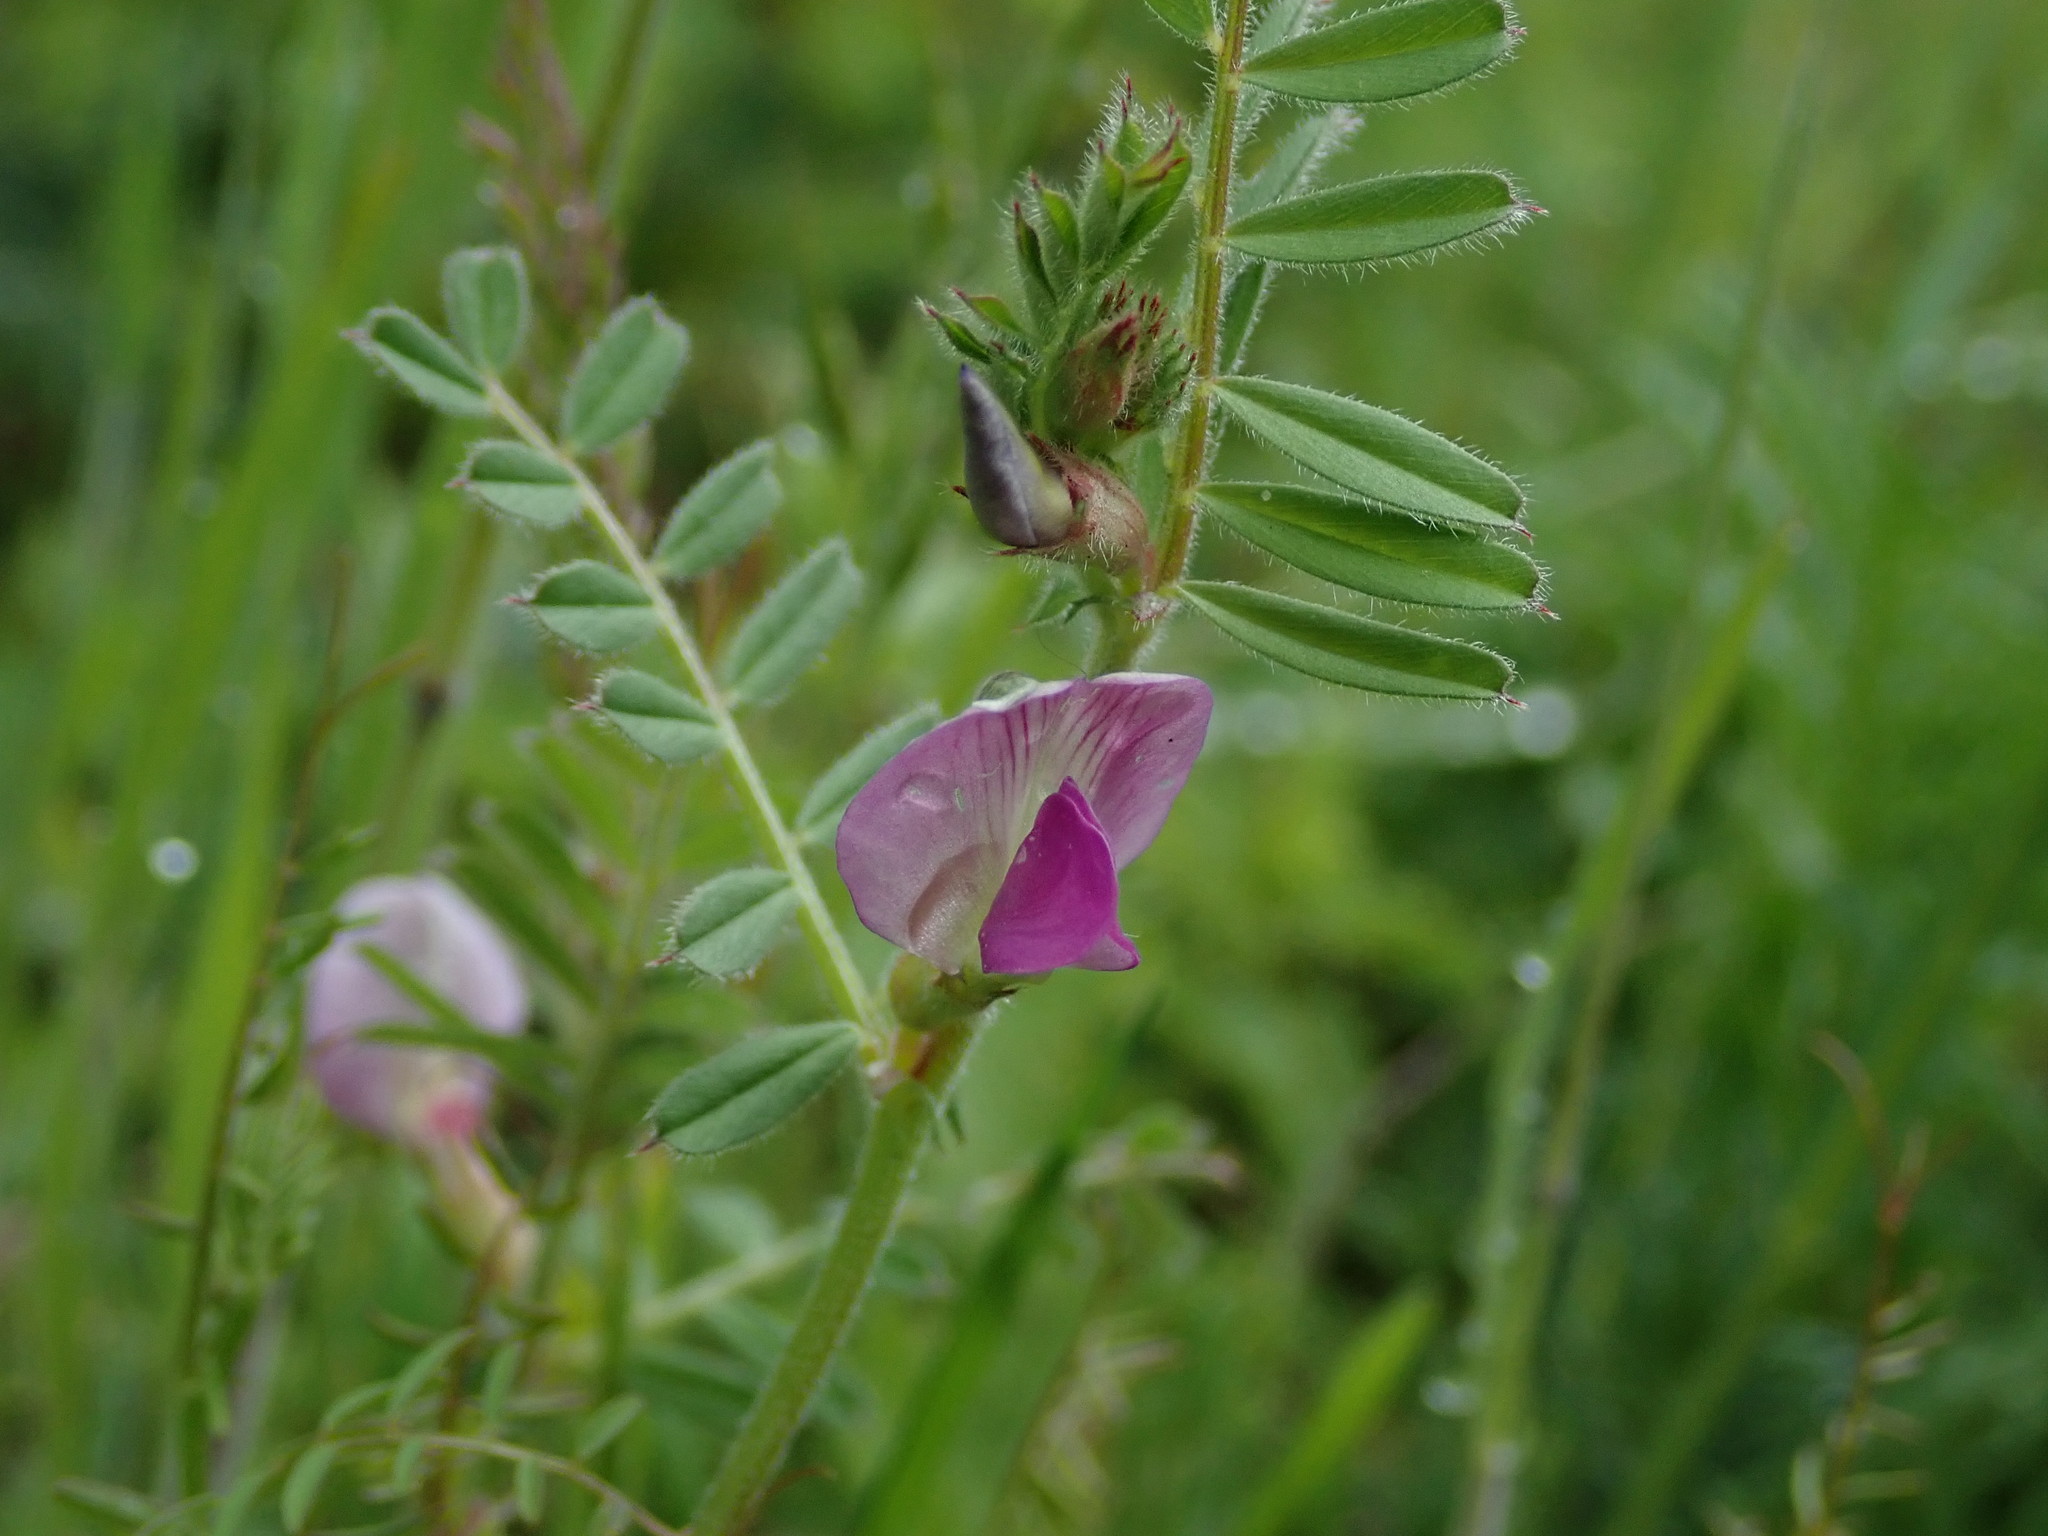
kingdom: Plantae
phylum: Tracheophyta
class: Magnoliopsida
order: Fabales
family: Fabaceae
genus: Vicia
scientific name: Vicia sativa
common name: Garden vetch
